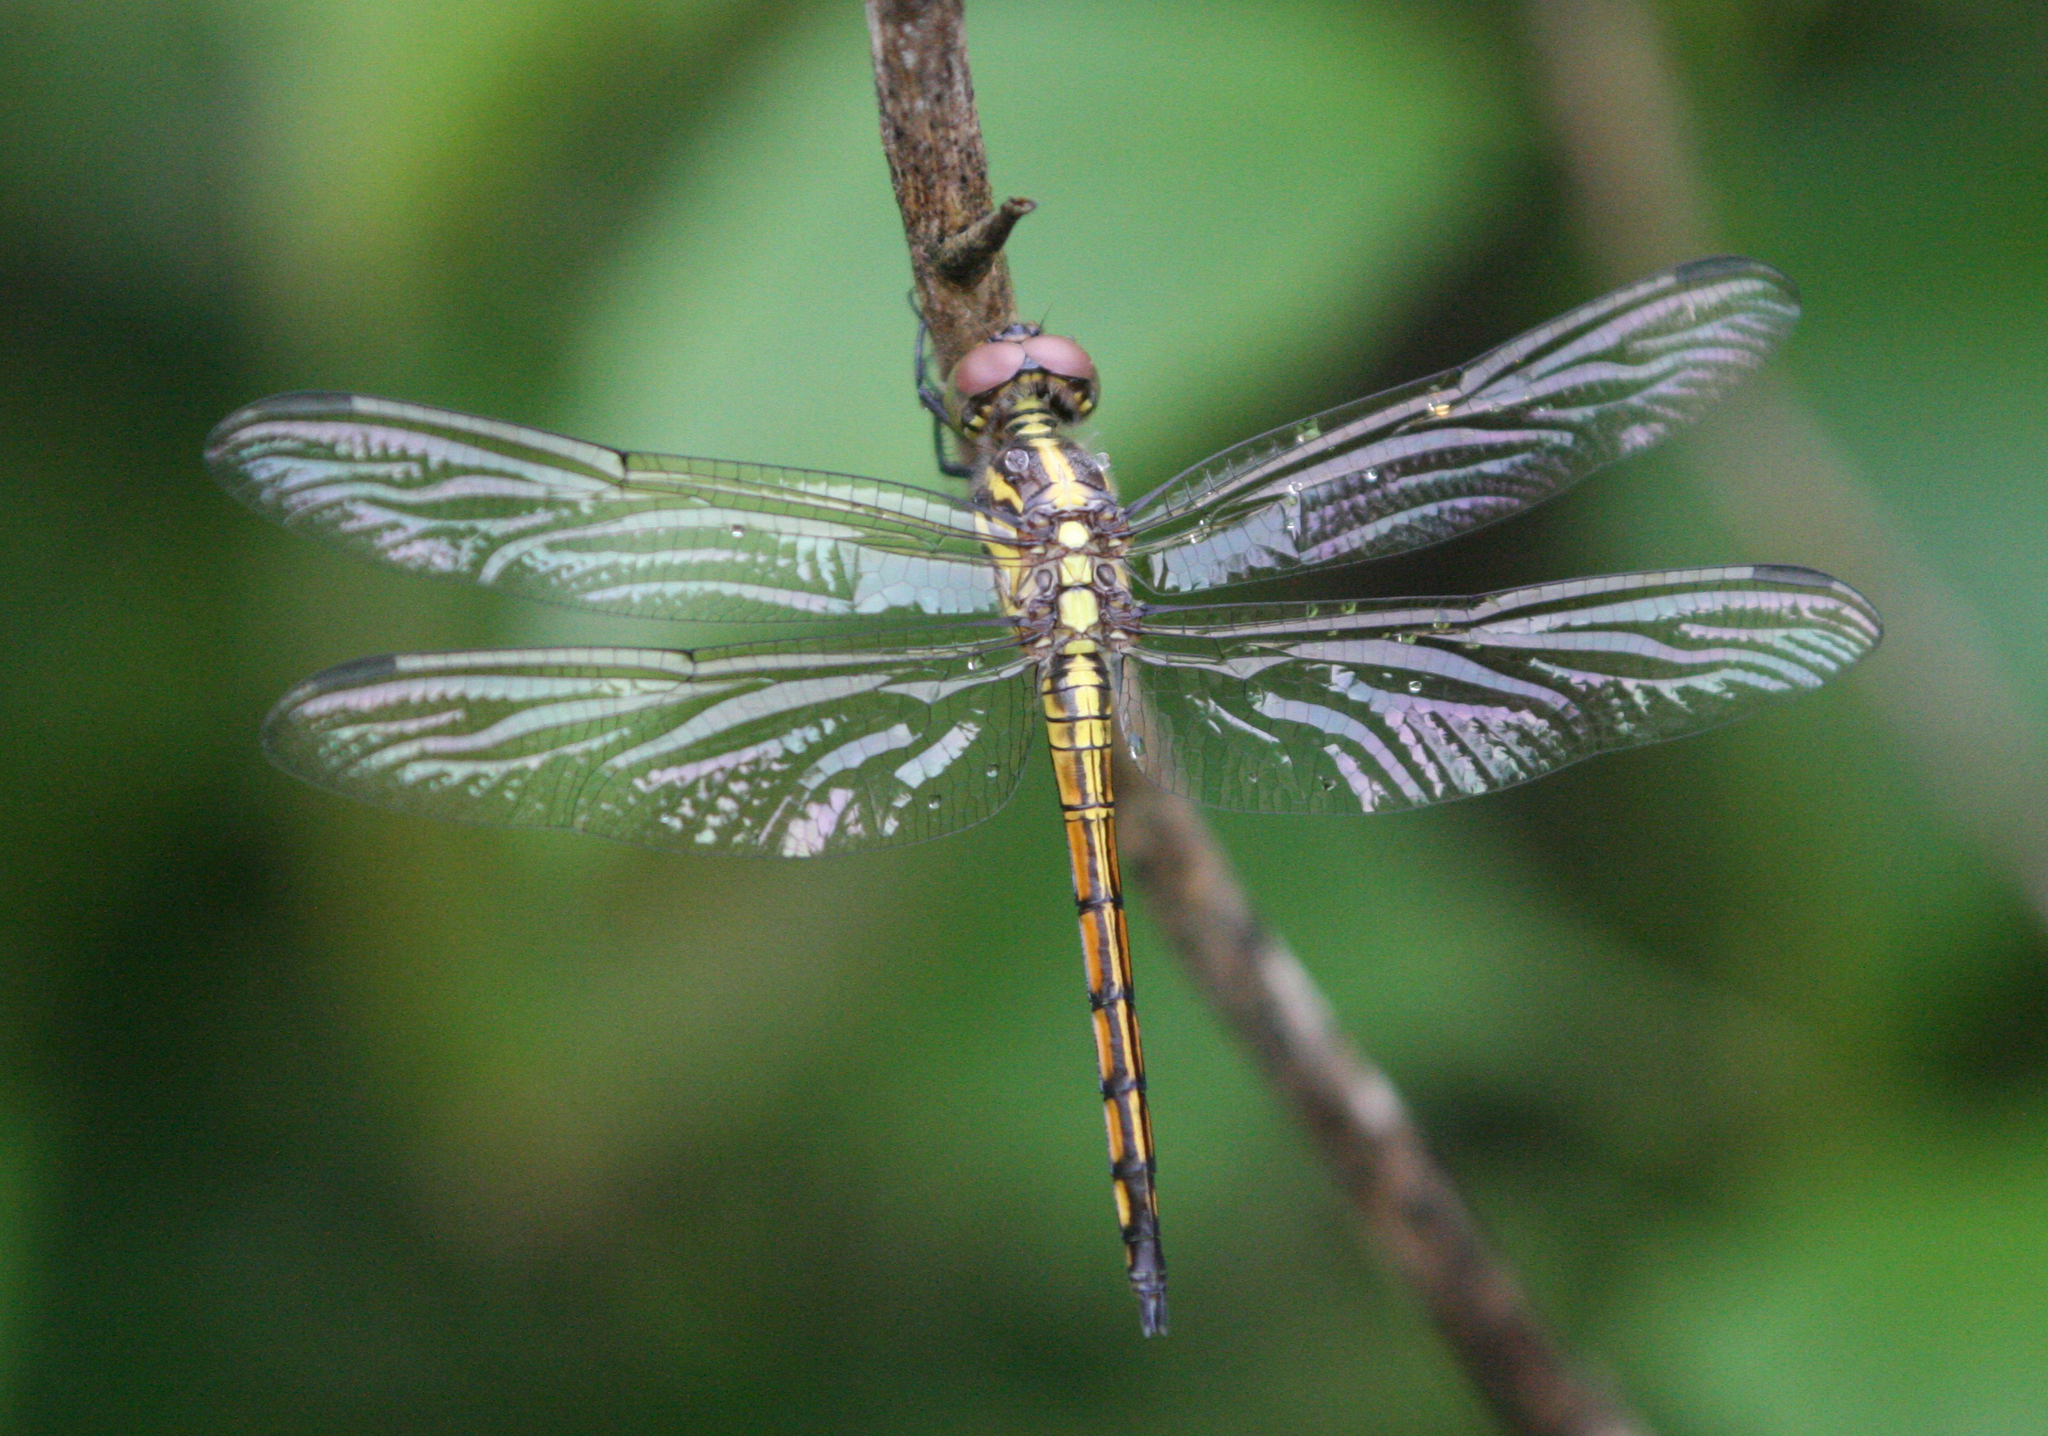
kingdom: Animalia
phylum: Arthropoda
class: Insecta
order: Odonata
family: Libellulidae
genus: Potamarcha
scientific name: Potamarcha congener
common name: Blue chaser
